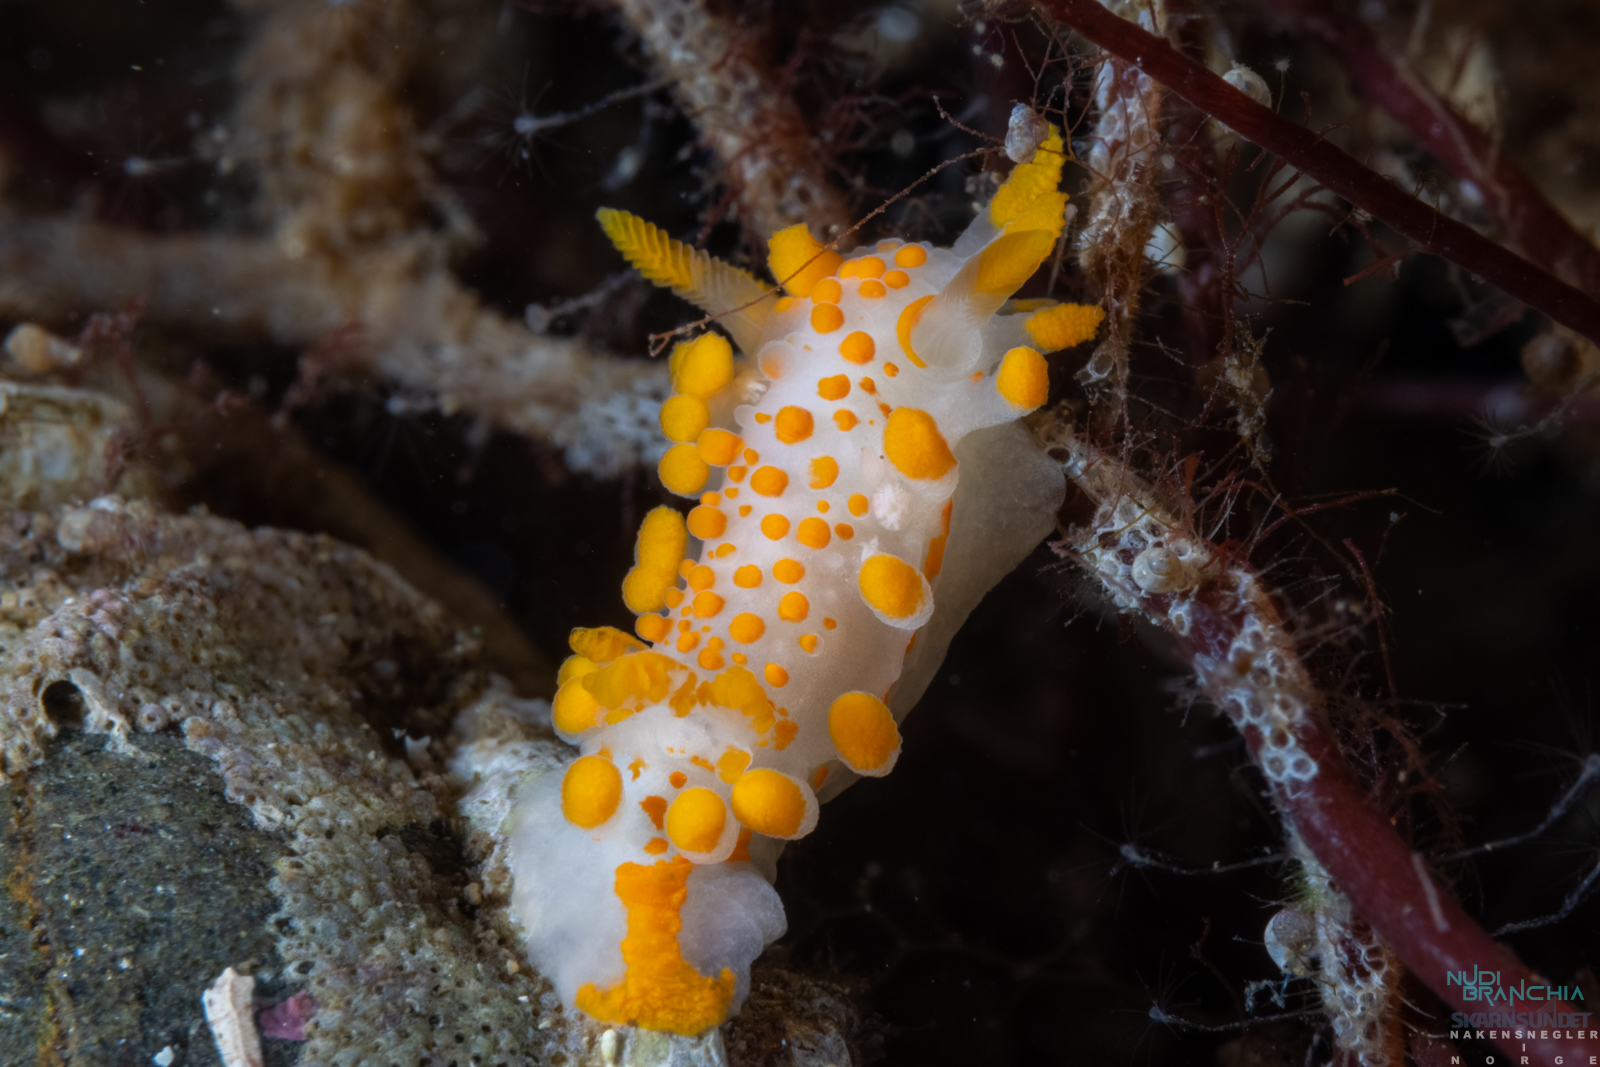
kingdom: Animalia
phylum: Mollusca
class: Gastropoda
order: Nudibranchia
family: Polyceridae
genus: Limacia
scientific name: Limacia clavigera
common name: Orange-clubbed sea slug
